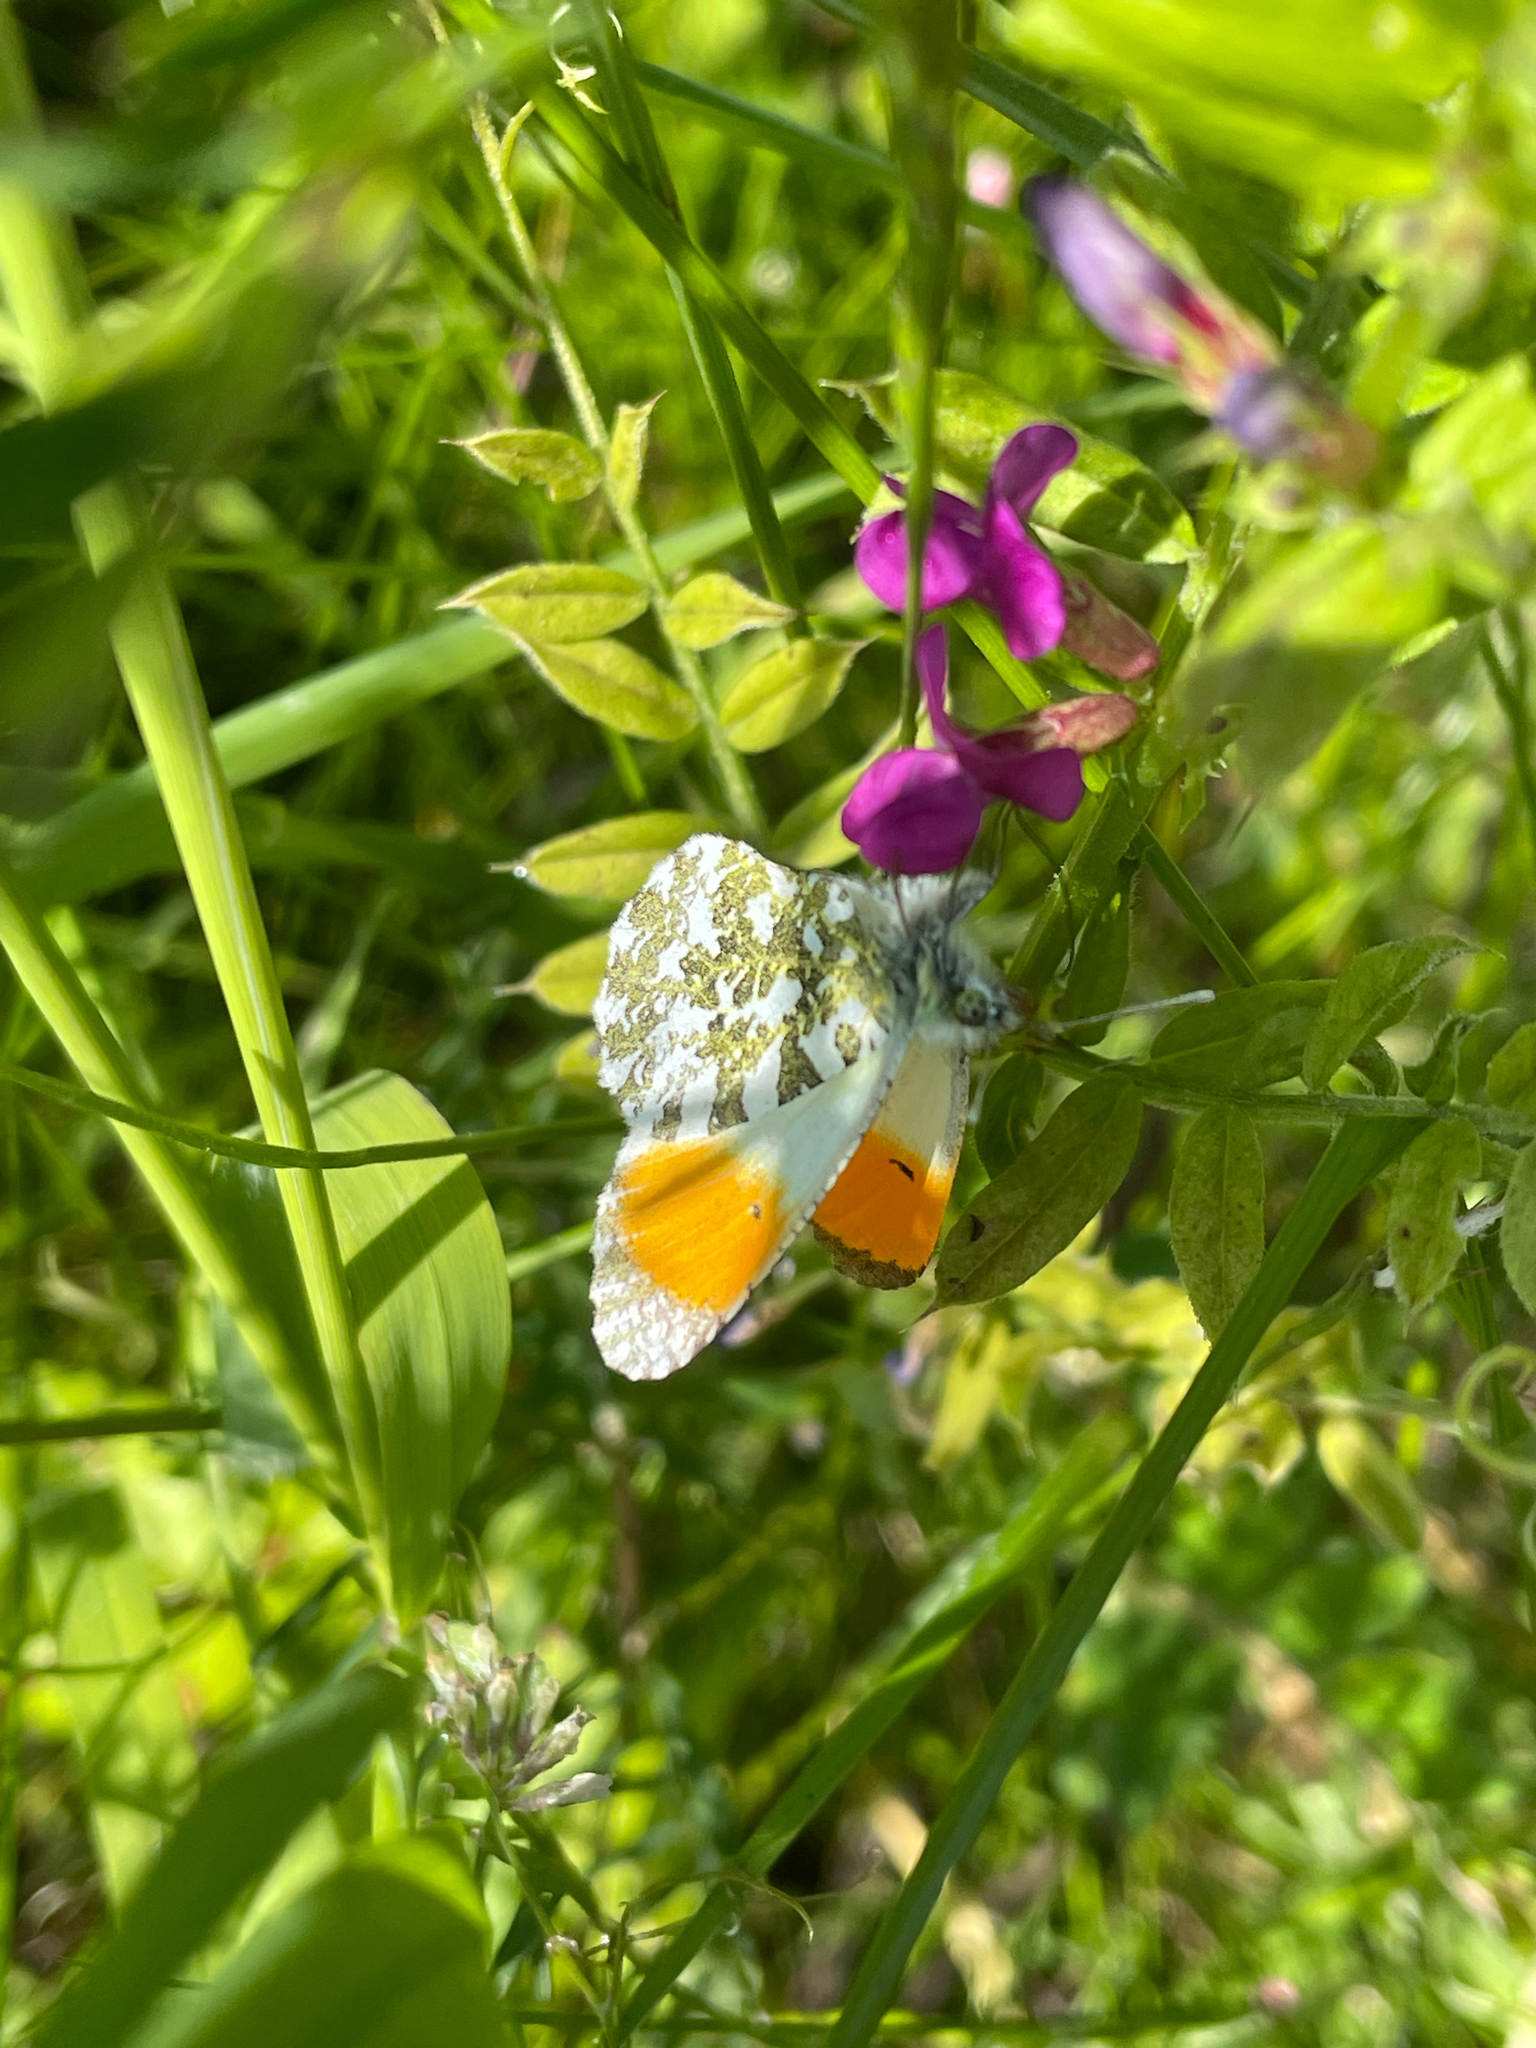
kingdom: Animalia
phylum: Arthropoda
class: Insecta
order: Lepidoptera
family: Pieridae
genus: Anthocharis
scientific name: Anthocharis cardamines
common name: Orange-tip
